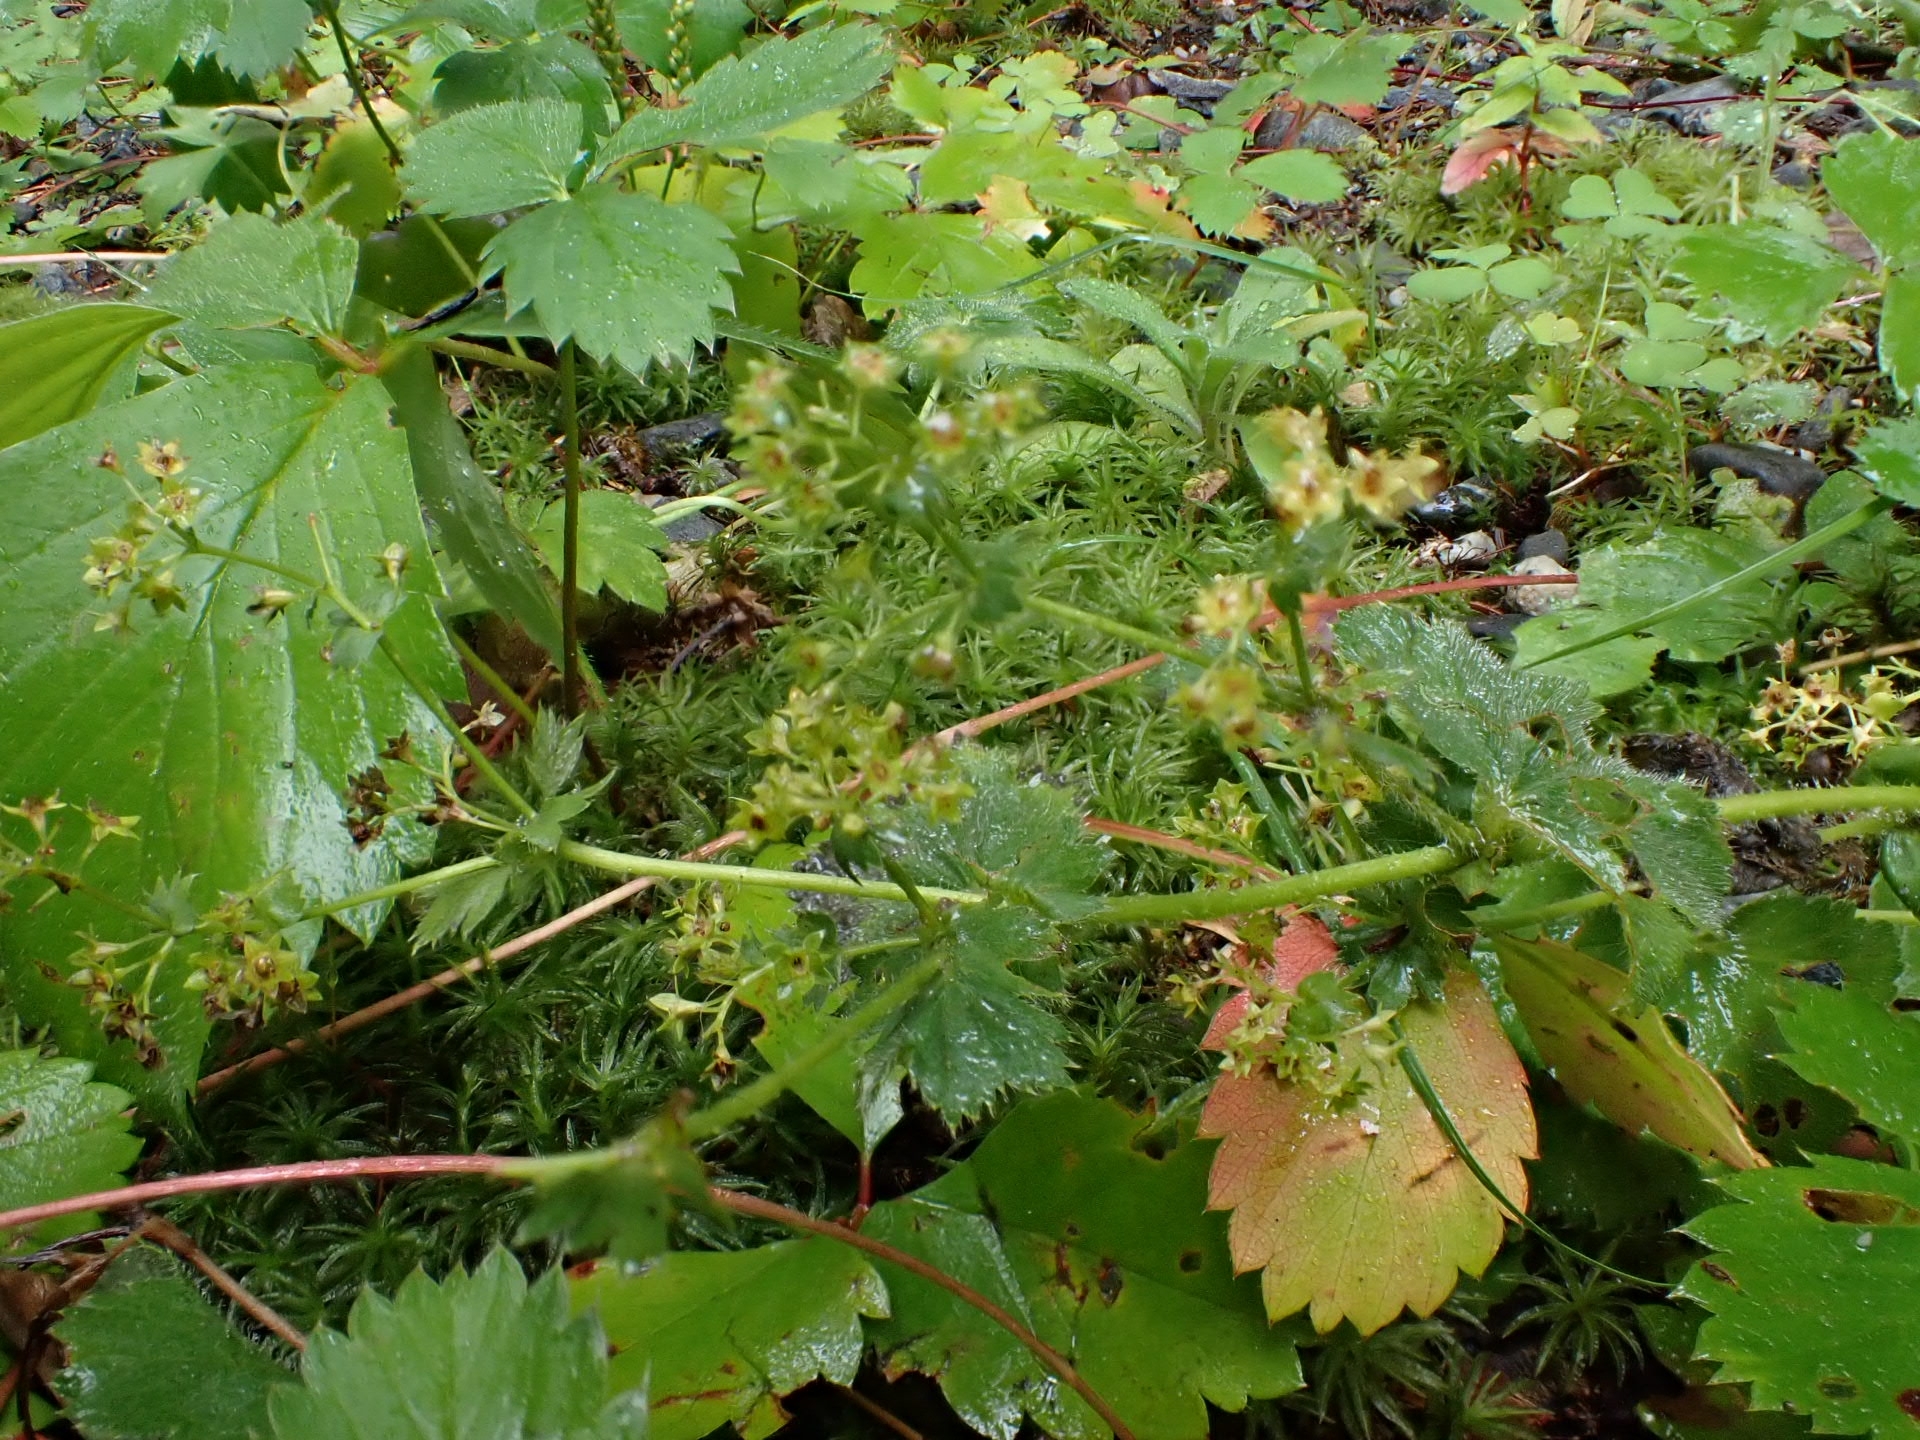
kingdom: Plantae
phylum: Tracheophyta
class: Magnoliopsida
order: Rosales
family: Rosaceae
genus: Alchemilla
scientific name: Alchemilla mollis
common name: Lady's-mantle
